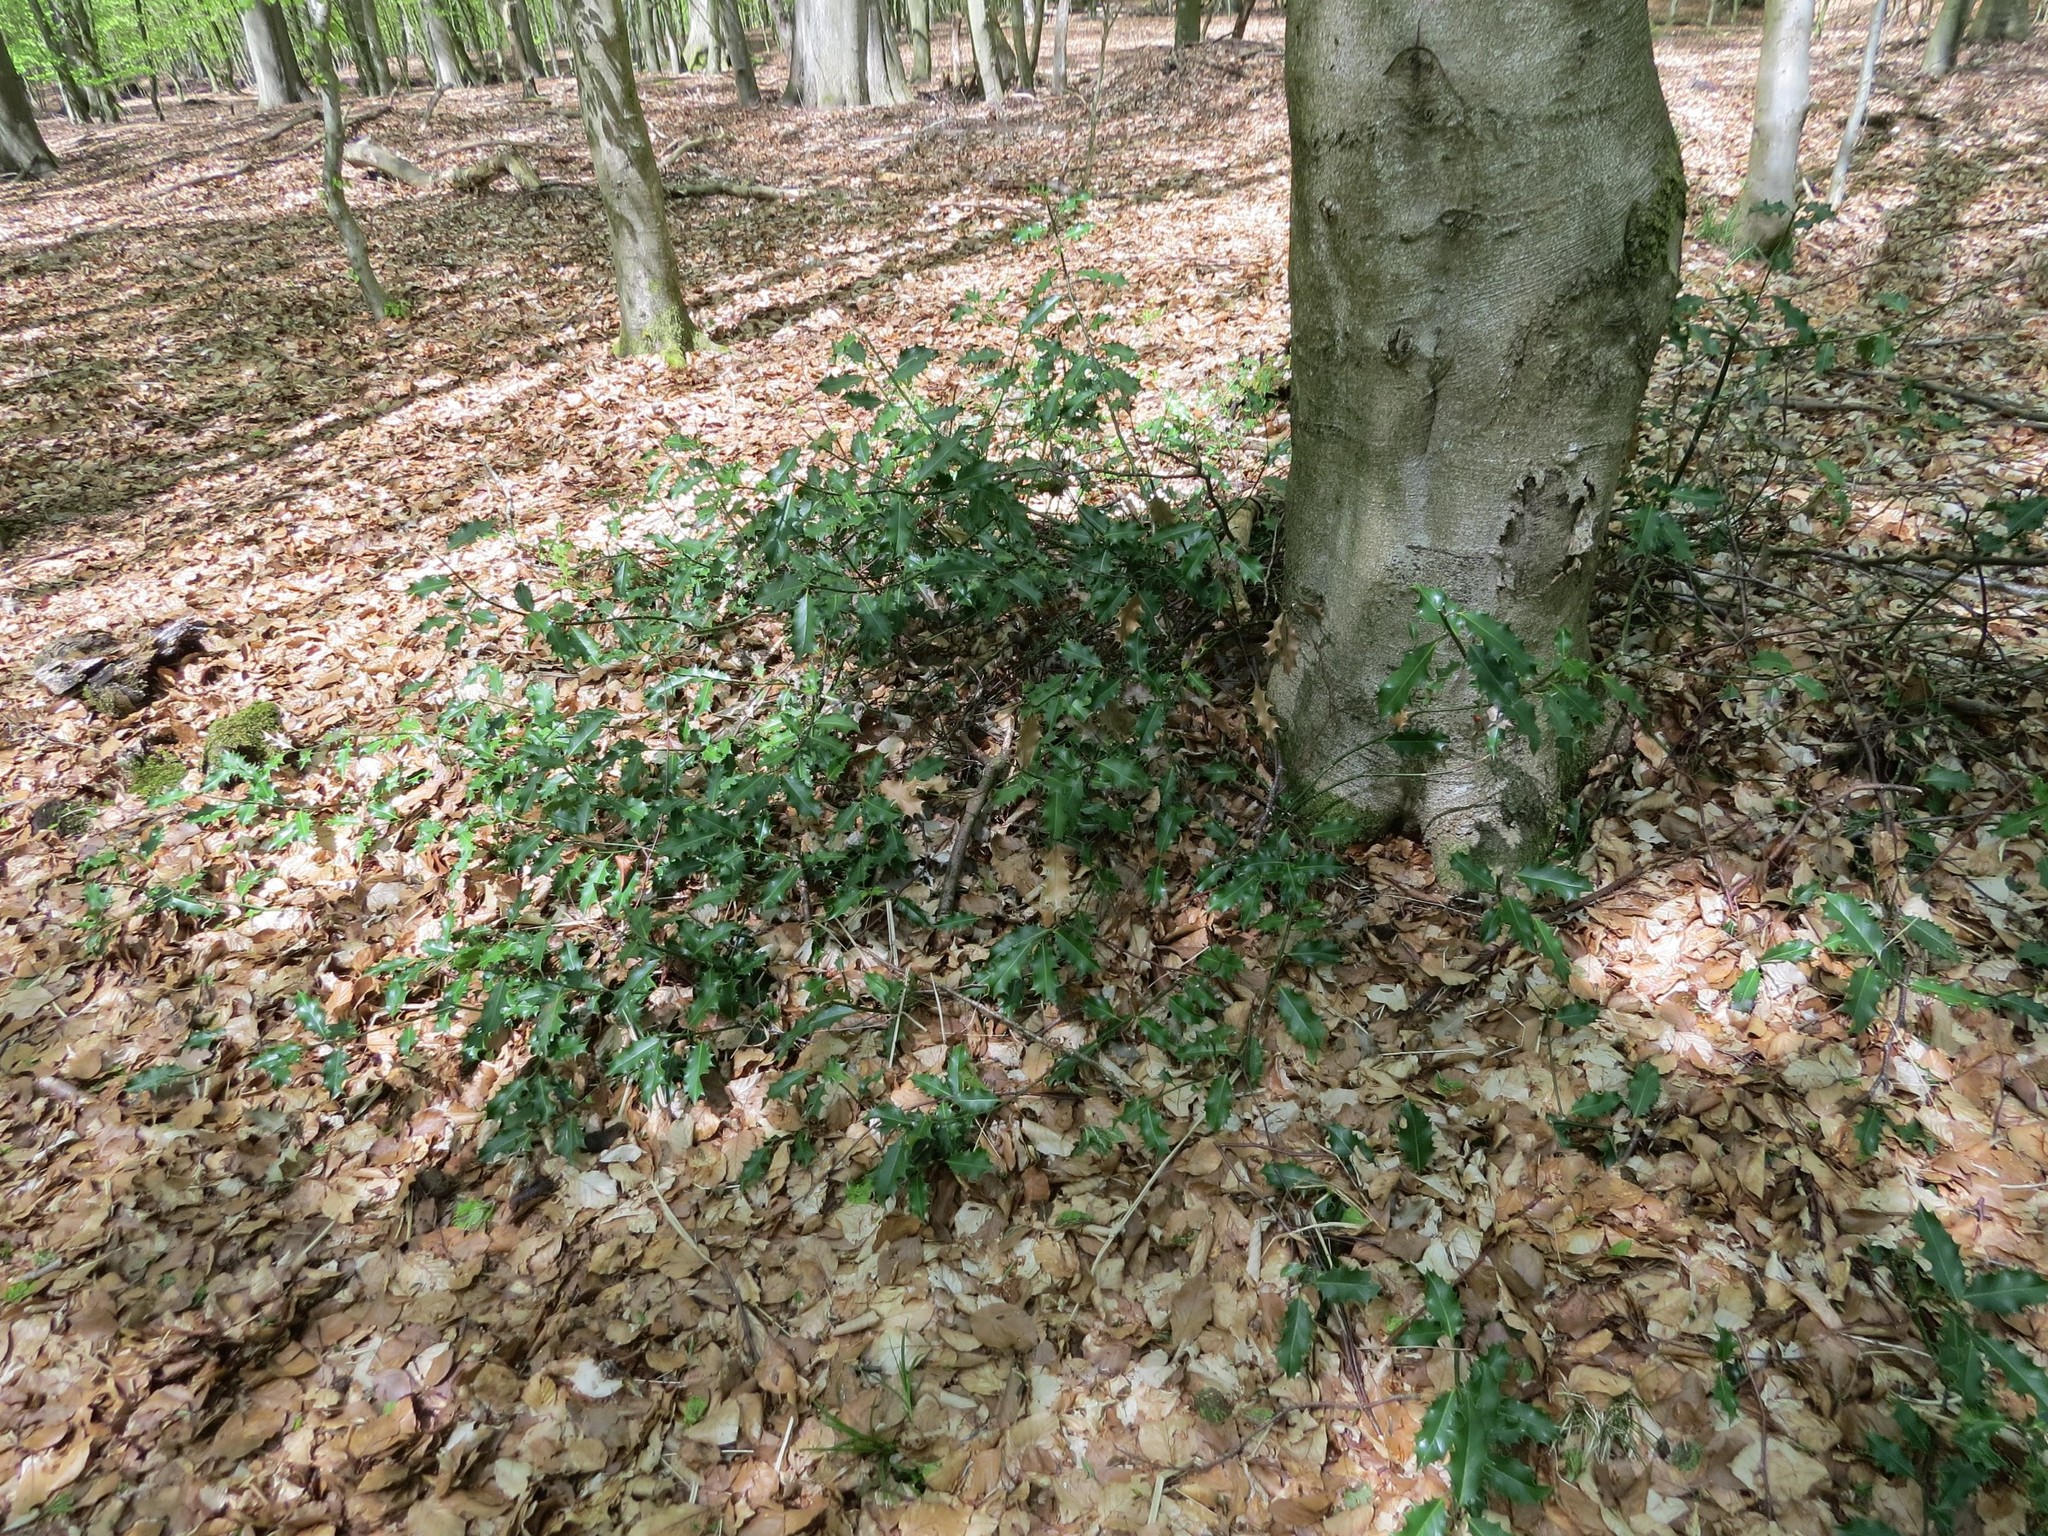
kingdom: Plantae
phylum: Tracheophyta
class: Magnoliopsida
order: Aquifoliales
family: Aquifoliaceae
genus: Ilex
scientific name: Ilex aquifolium
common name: English holly
